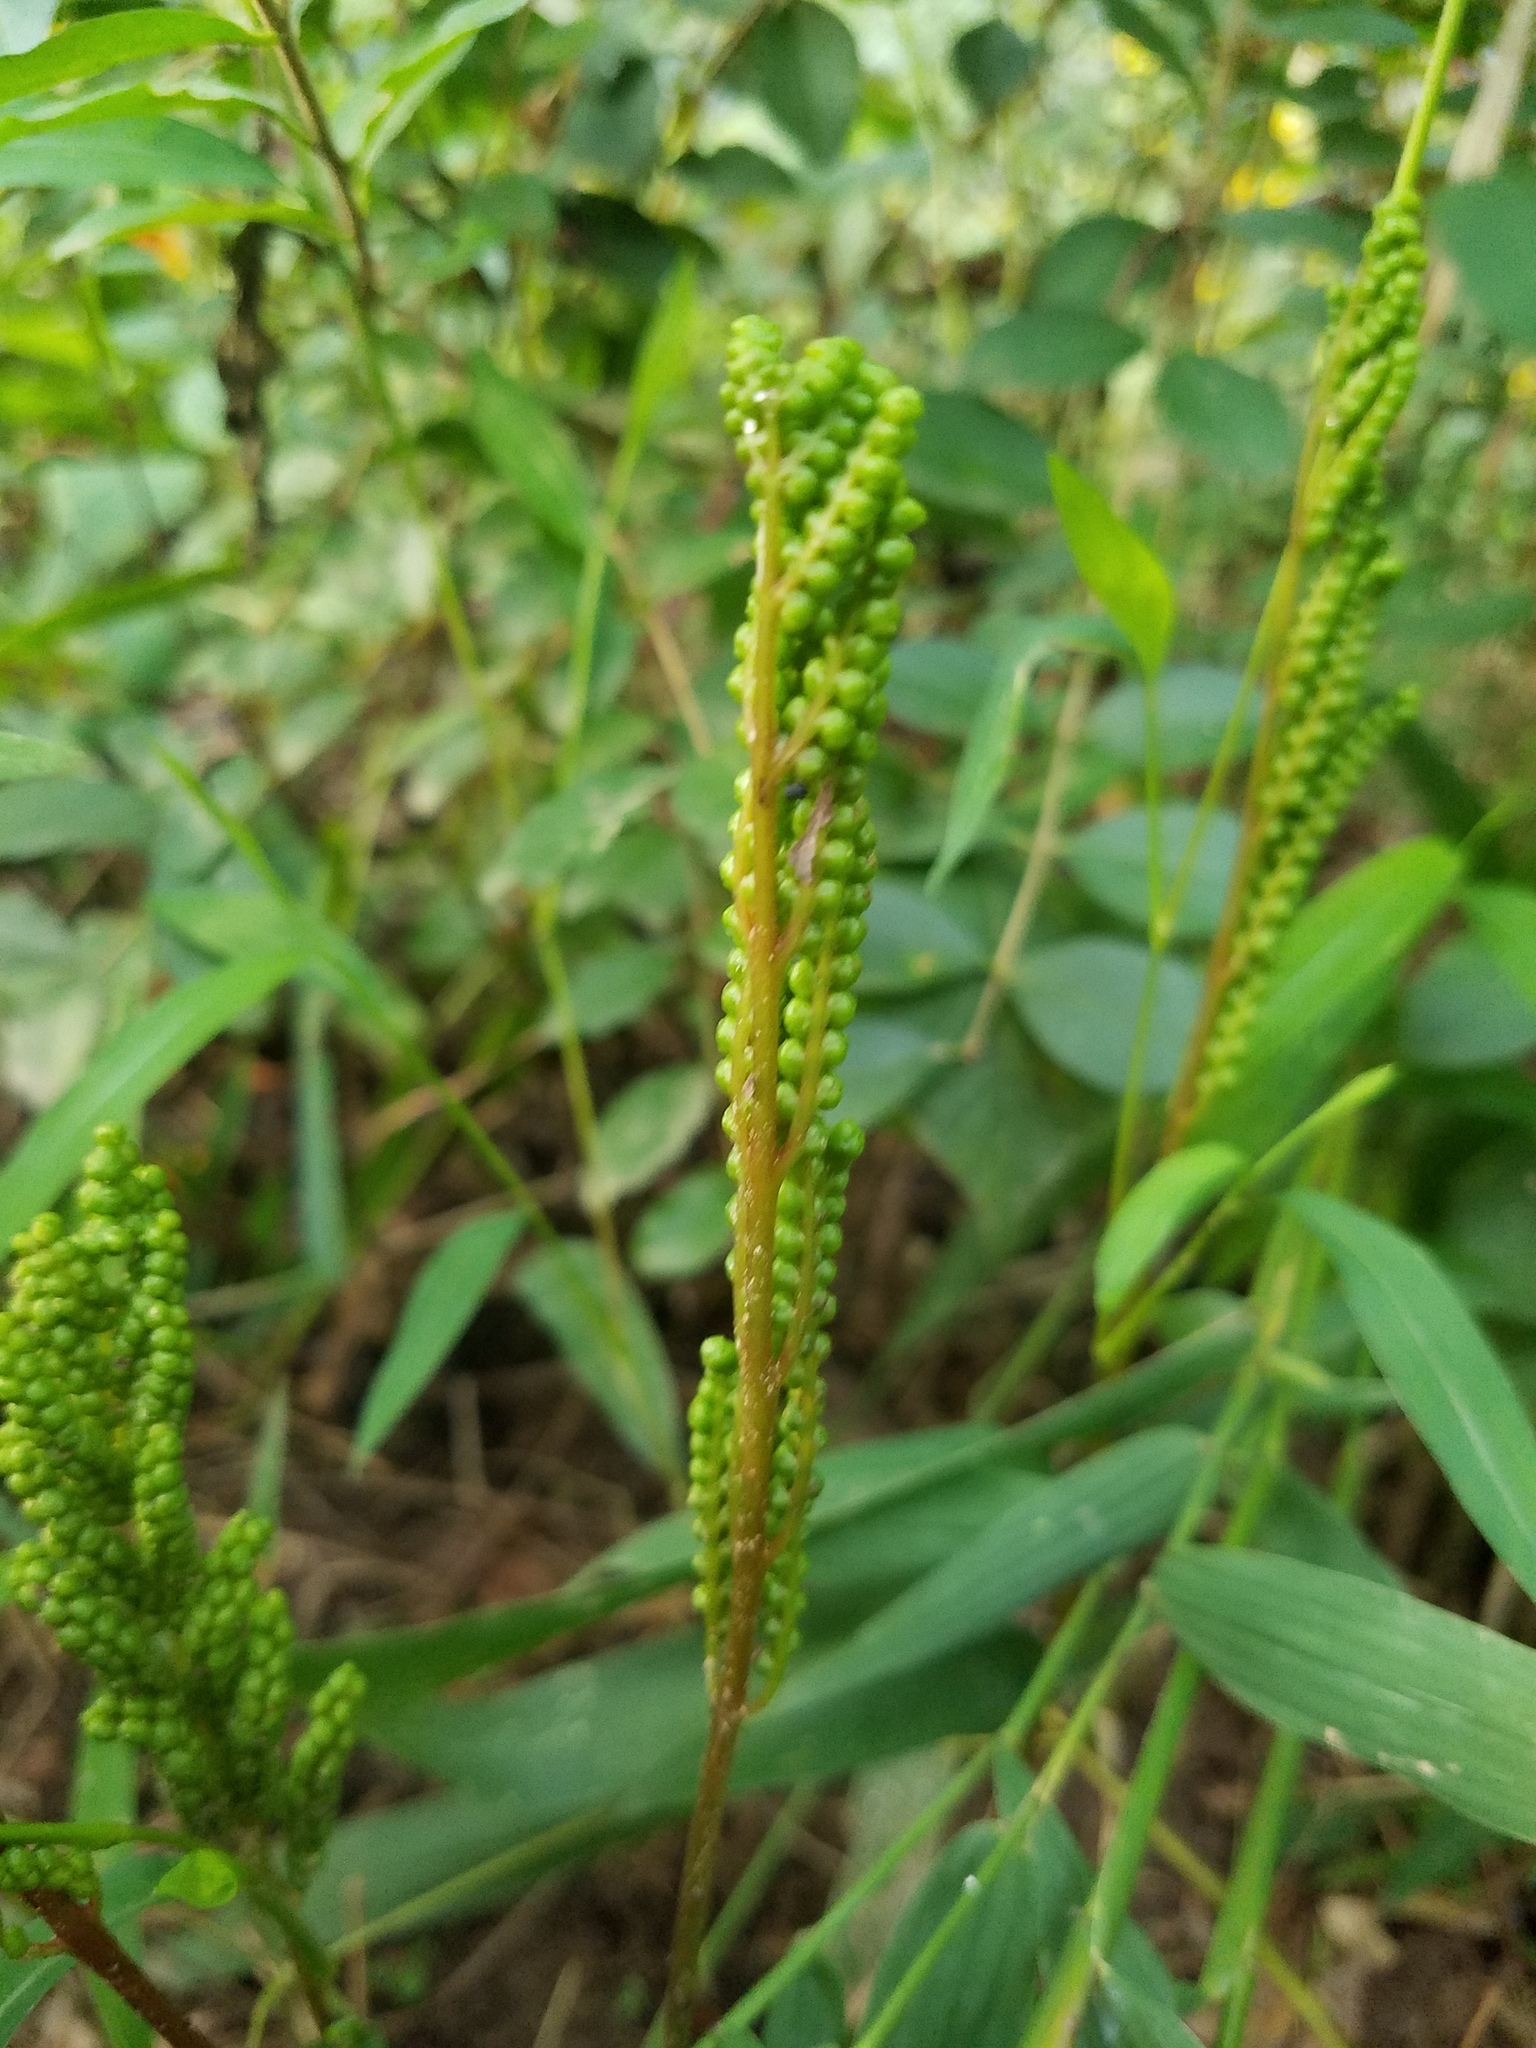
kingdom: Plantae
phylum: Tracheophyta
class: Polypodiopsida
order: Polypodiales
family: Onocleaceae
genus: Onoclea
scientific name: Onoclea sensibilis
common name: Sensitive fern
